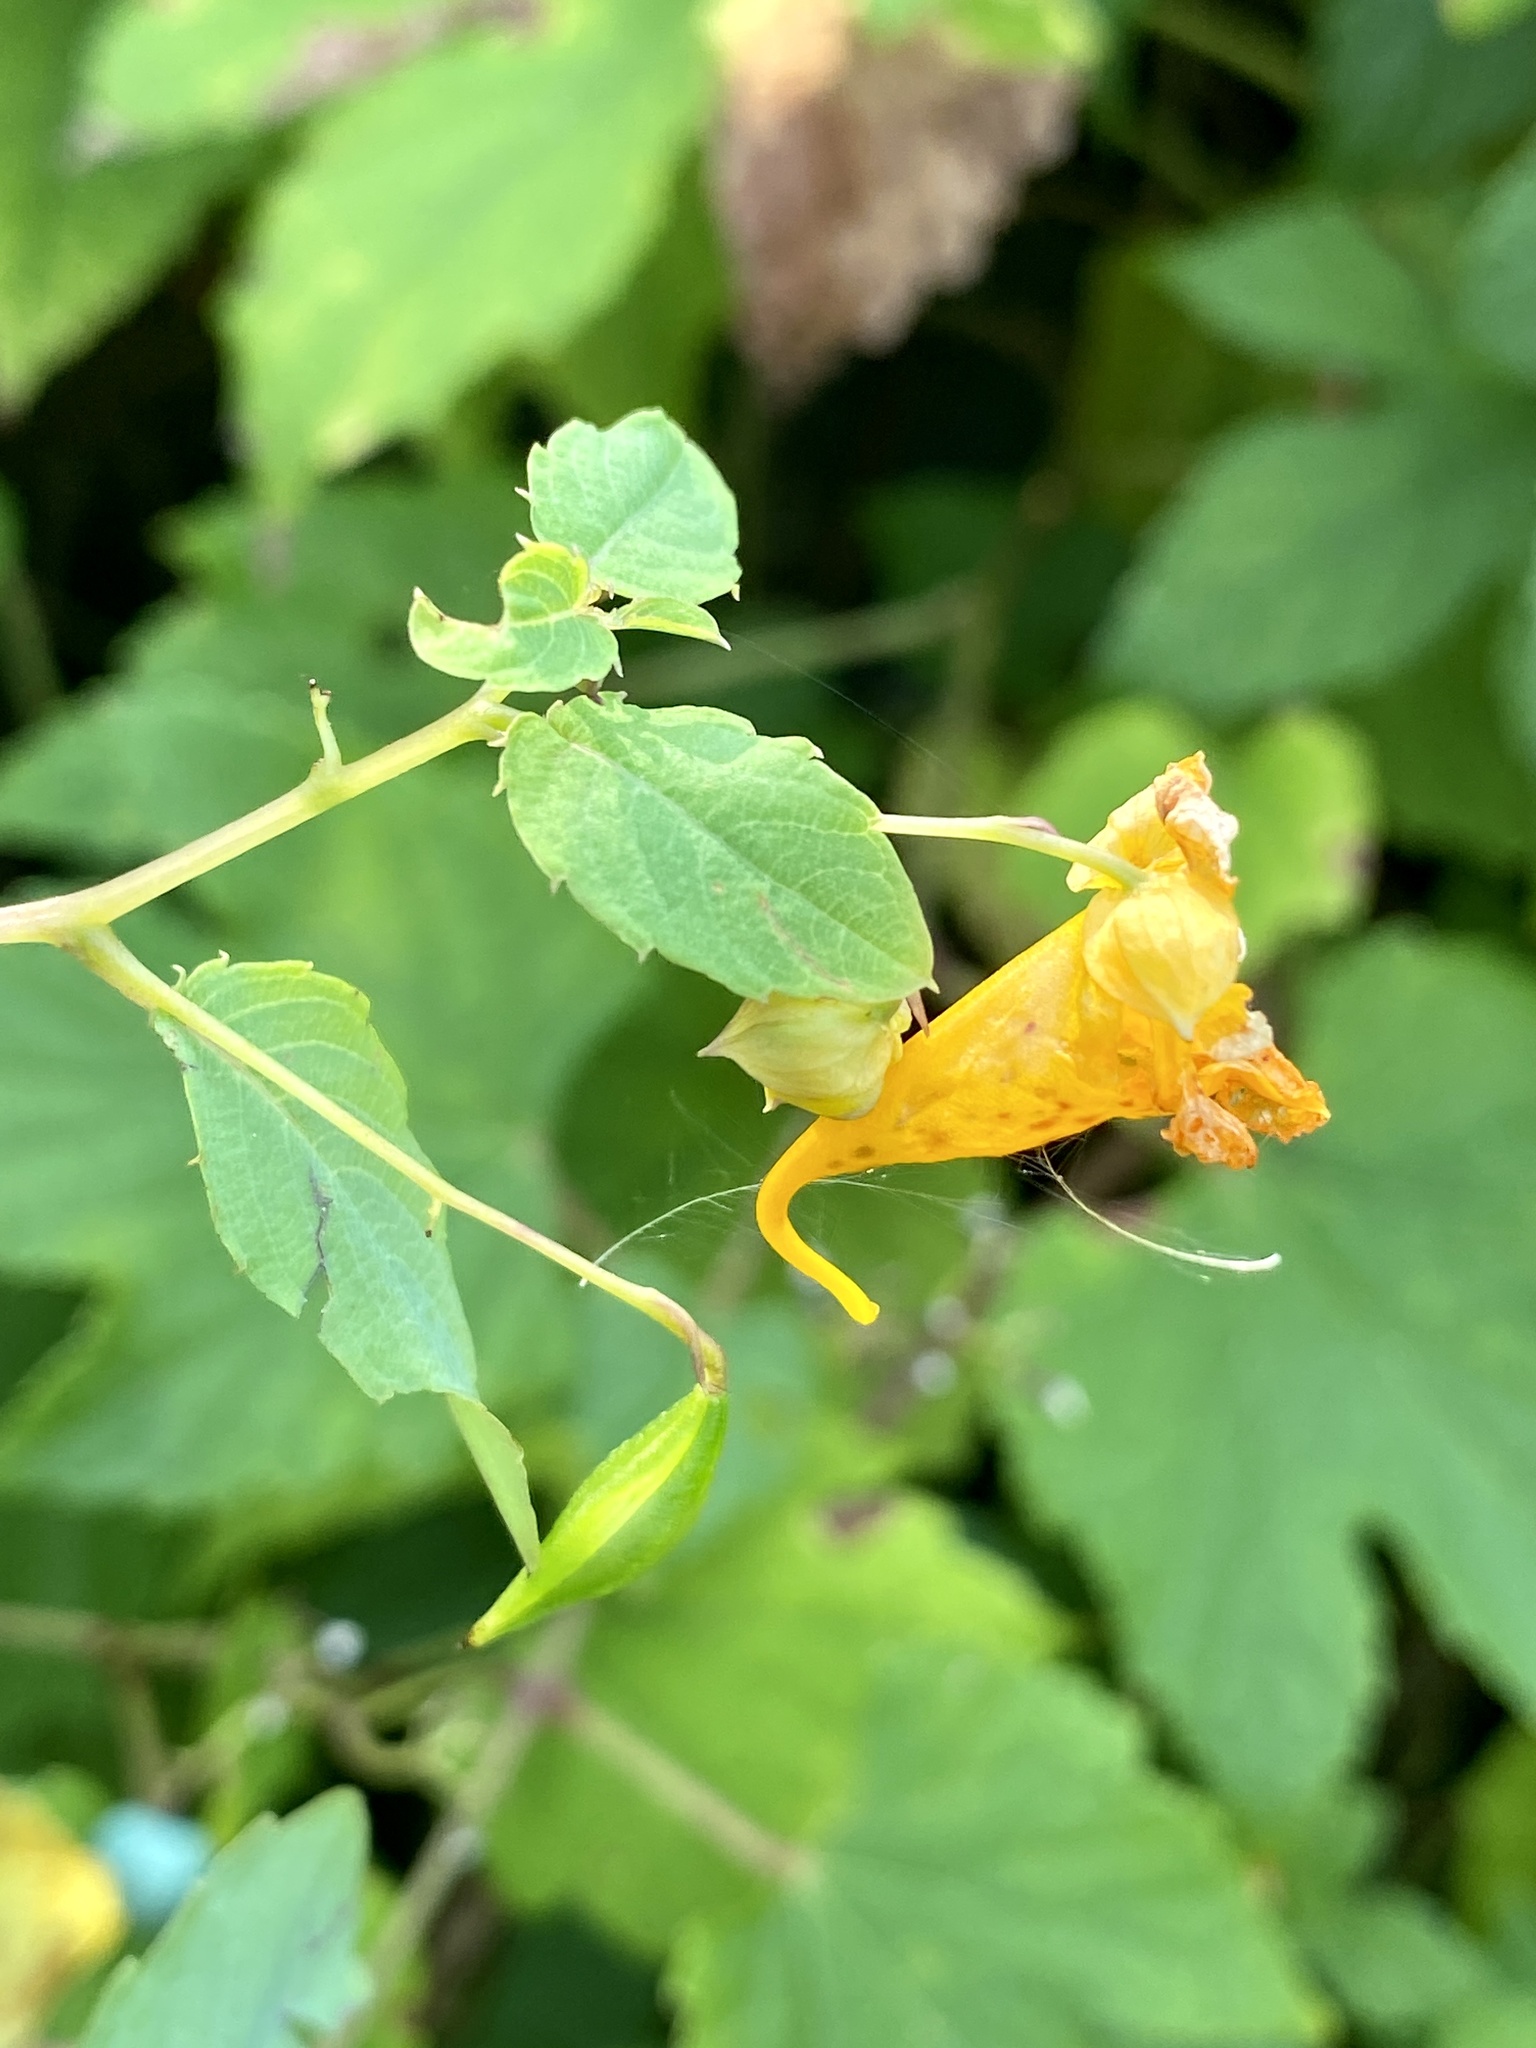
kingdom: Plantae
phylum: Tracheophyta
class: Magnoliopsida
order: Ericales
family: Balsaminaceae
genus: Impatiens
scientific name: Impatiens capensis
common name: Orange balsam
